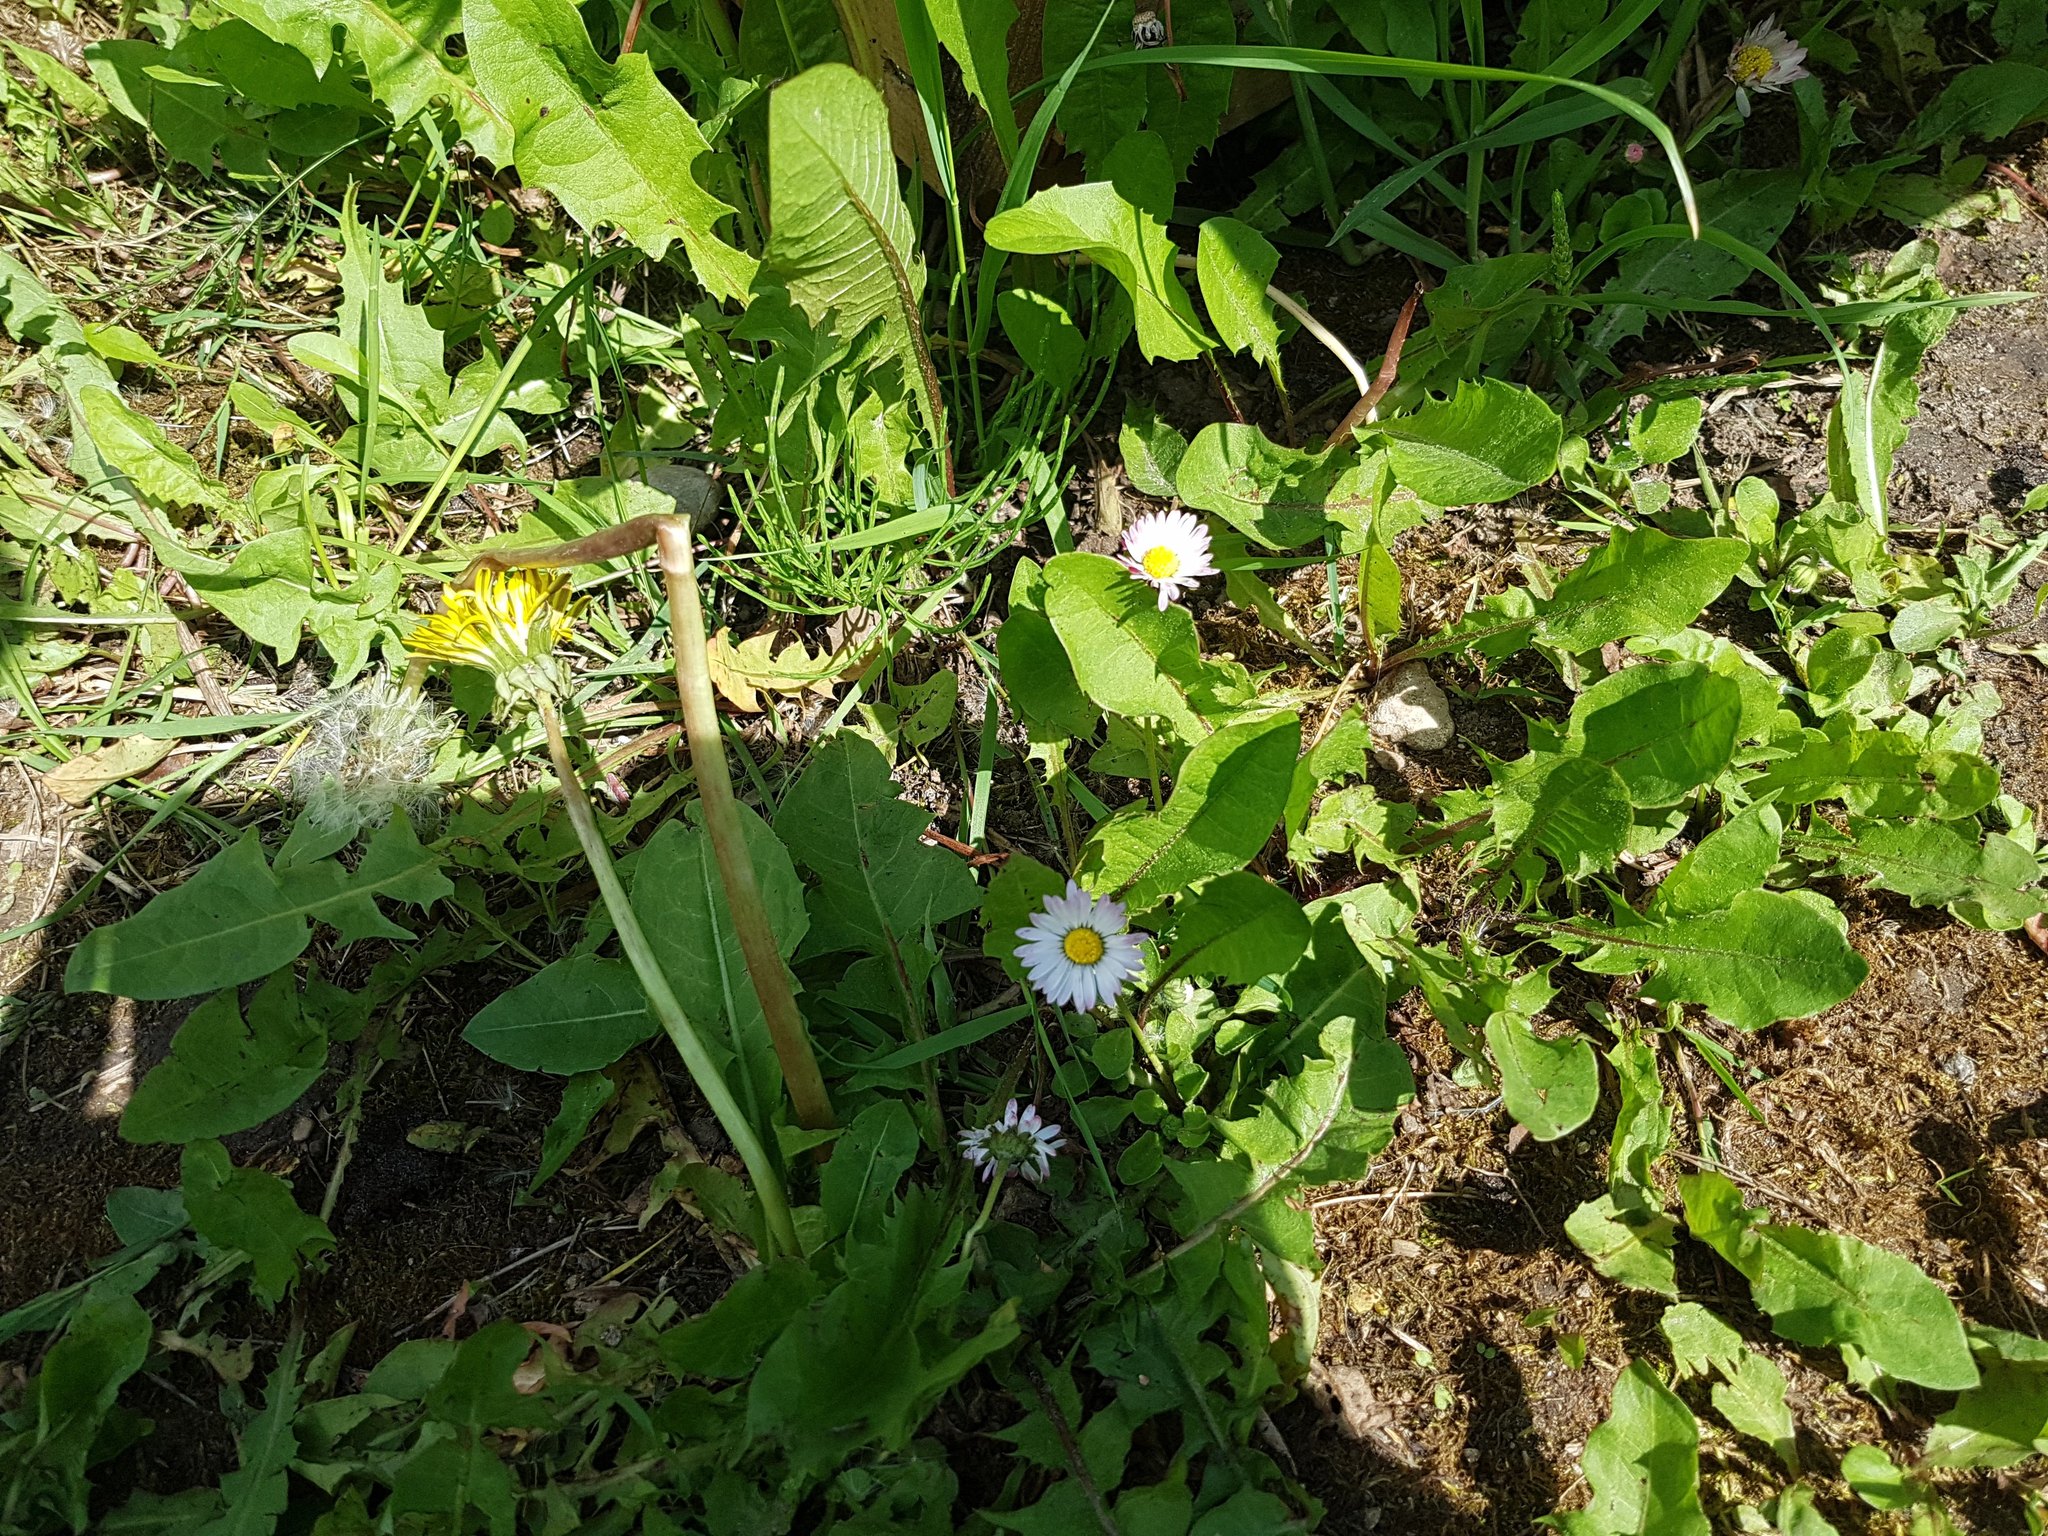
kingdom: Plantae
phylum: Tracheophyta
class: Magnoliopsida
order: Asterales
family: Asteraceae
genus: Bellis
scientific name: Bellis perennis
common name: Lawndaisy
